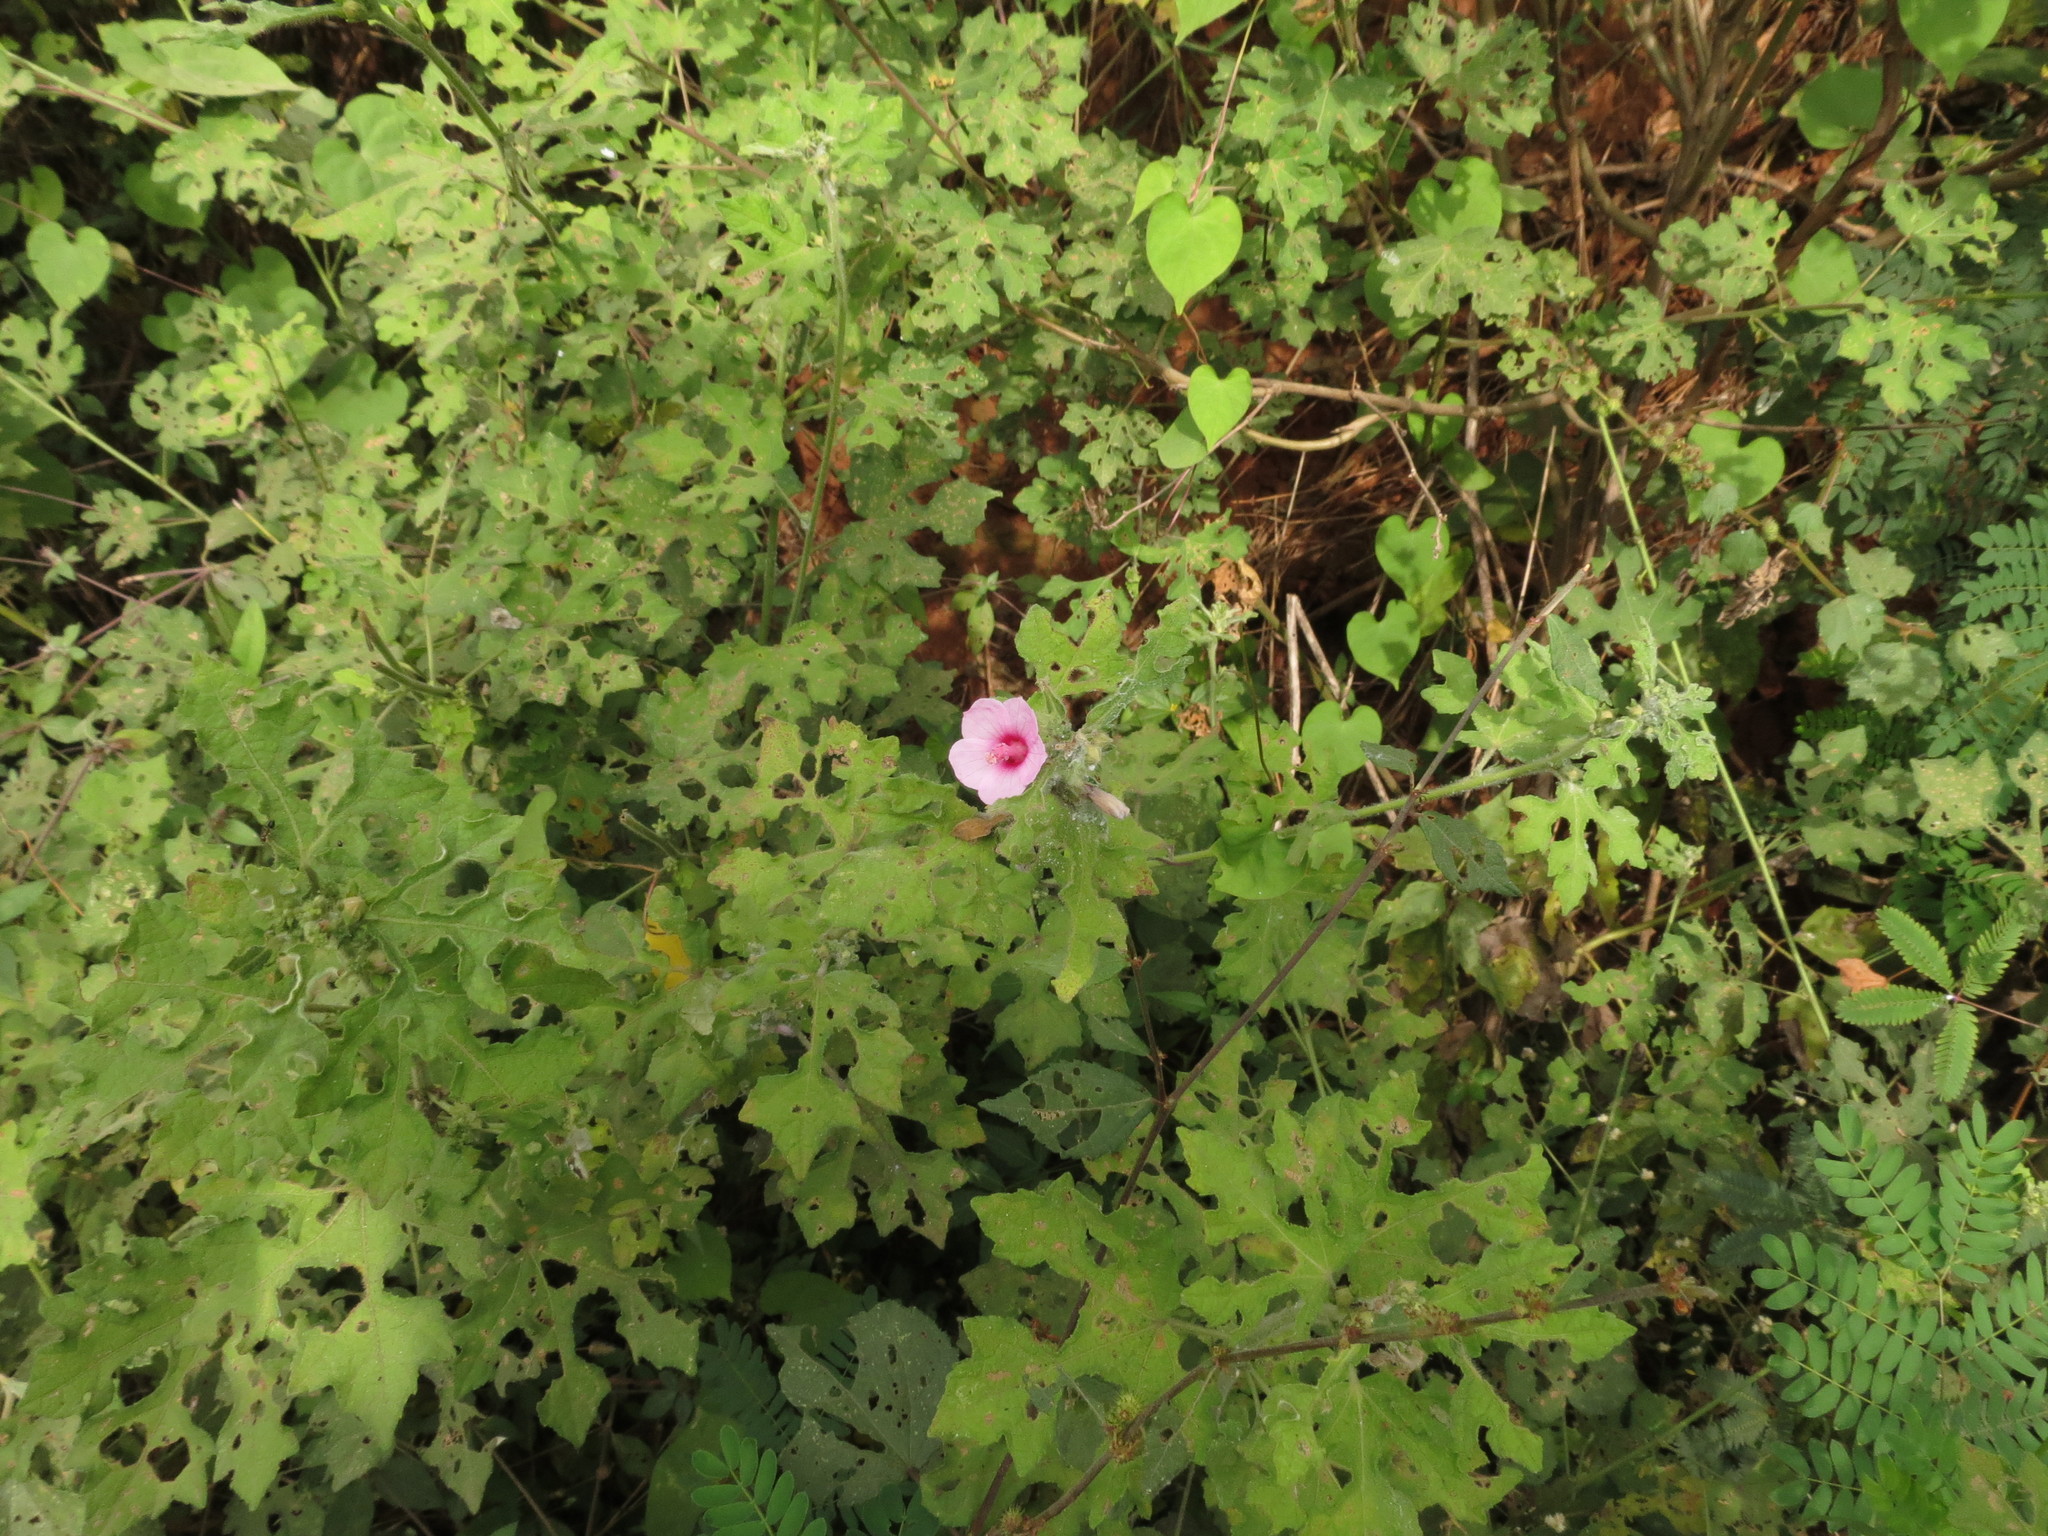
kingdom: Plantae
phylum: Tracheophyta
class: Magnoliopsida
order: Malvales
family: Malvaceae
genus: Urena
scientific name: Urena lobata
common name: Caesarweed
